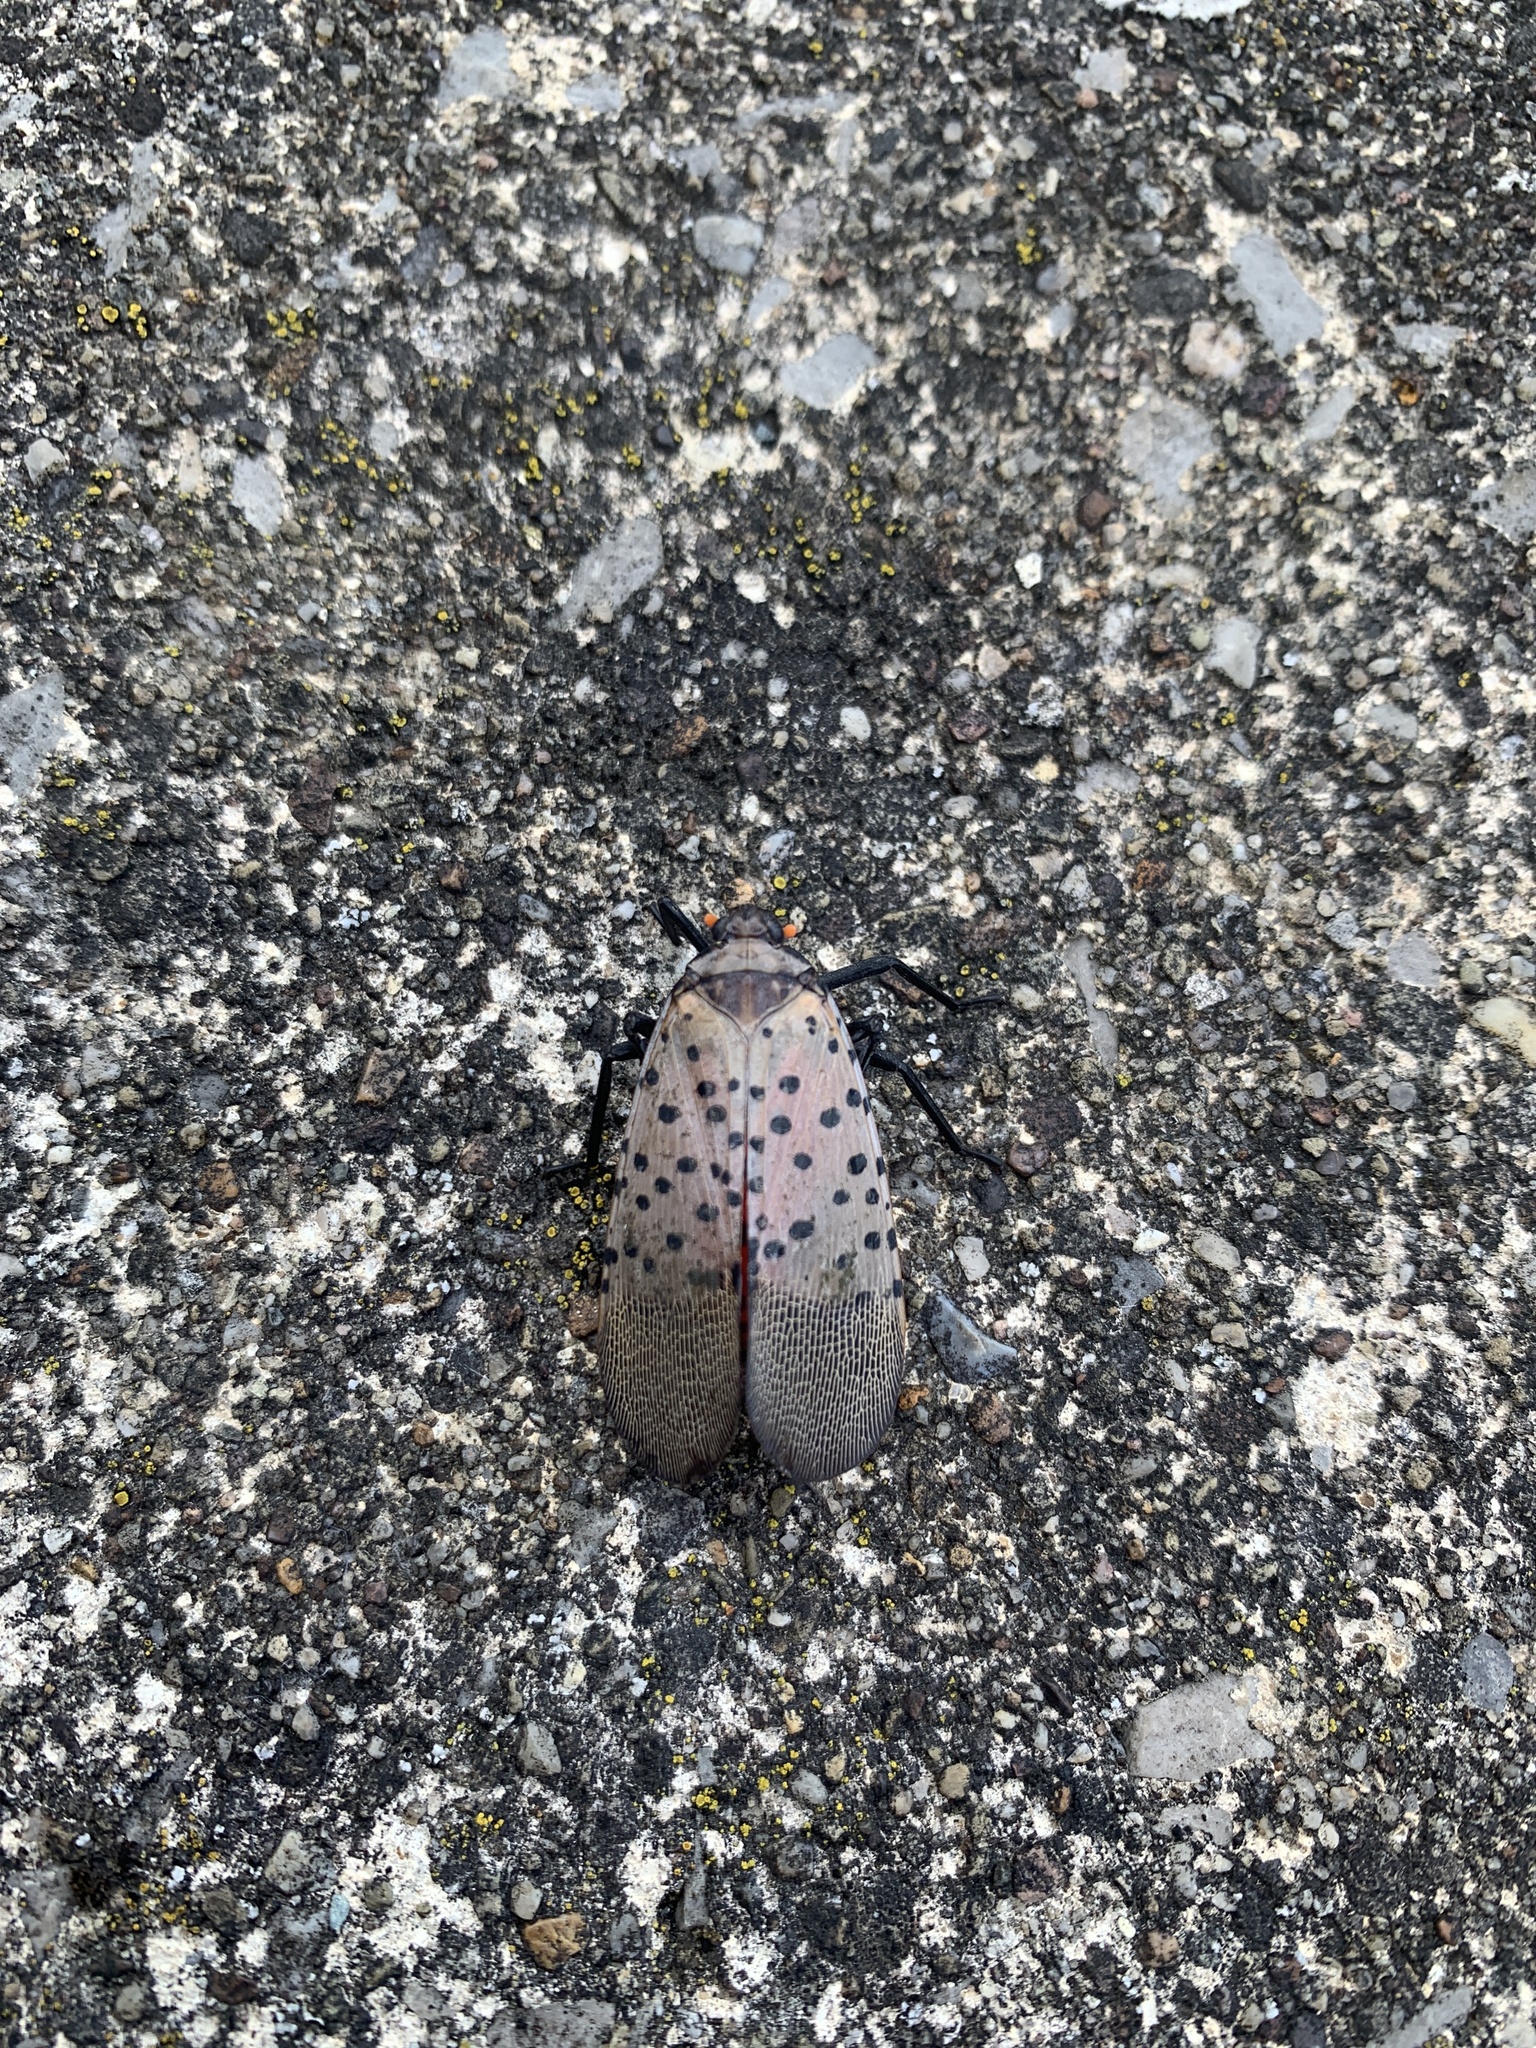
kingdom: Animalia
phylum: Arthropoda
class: Insecta
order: Hemiptera
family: Fulgoridae
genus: Lycorma
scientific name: Lycorma delicatula
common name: Spotted lanternfly
